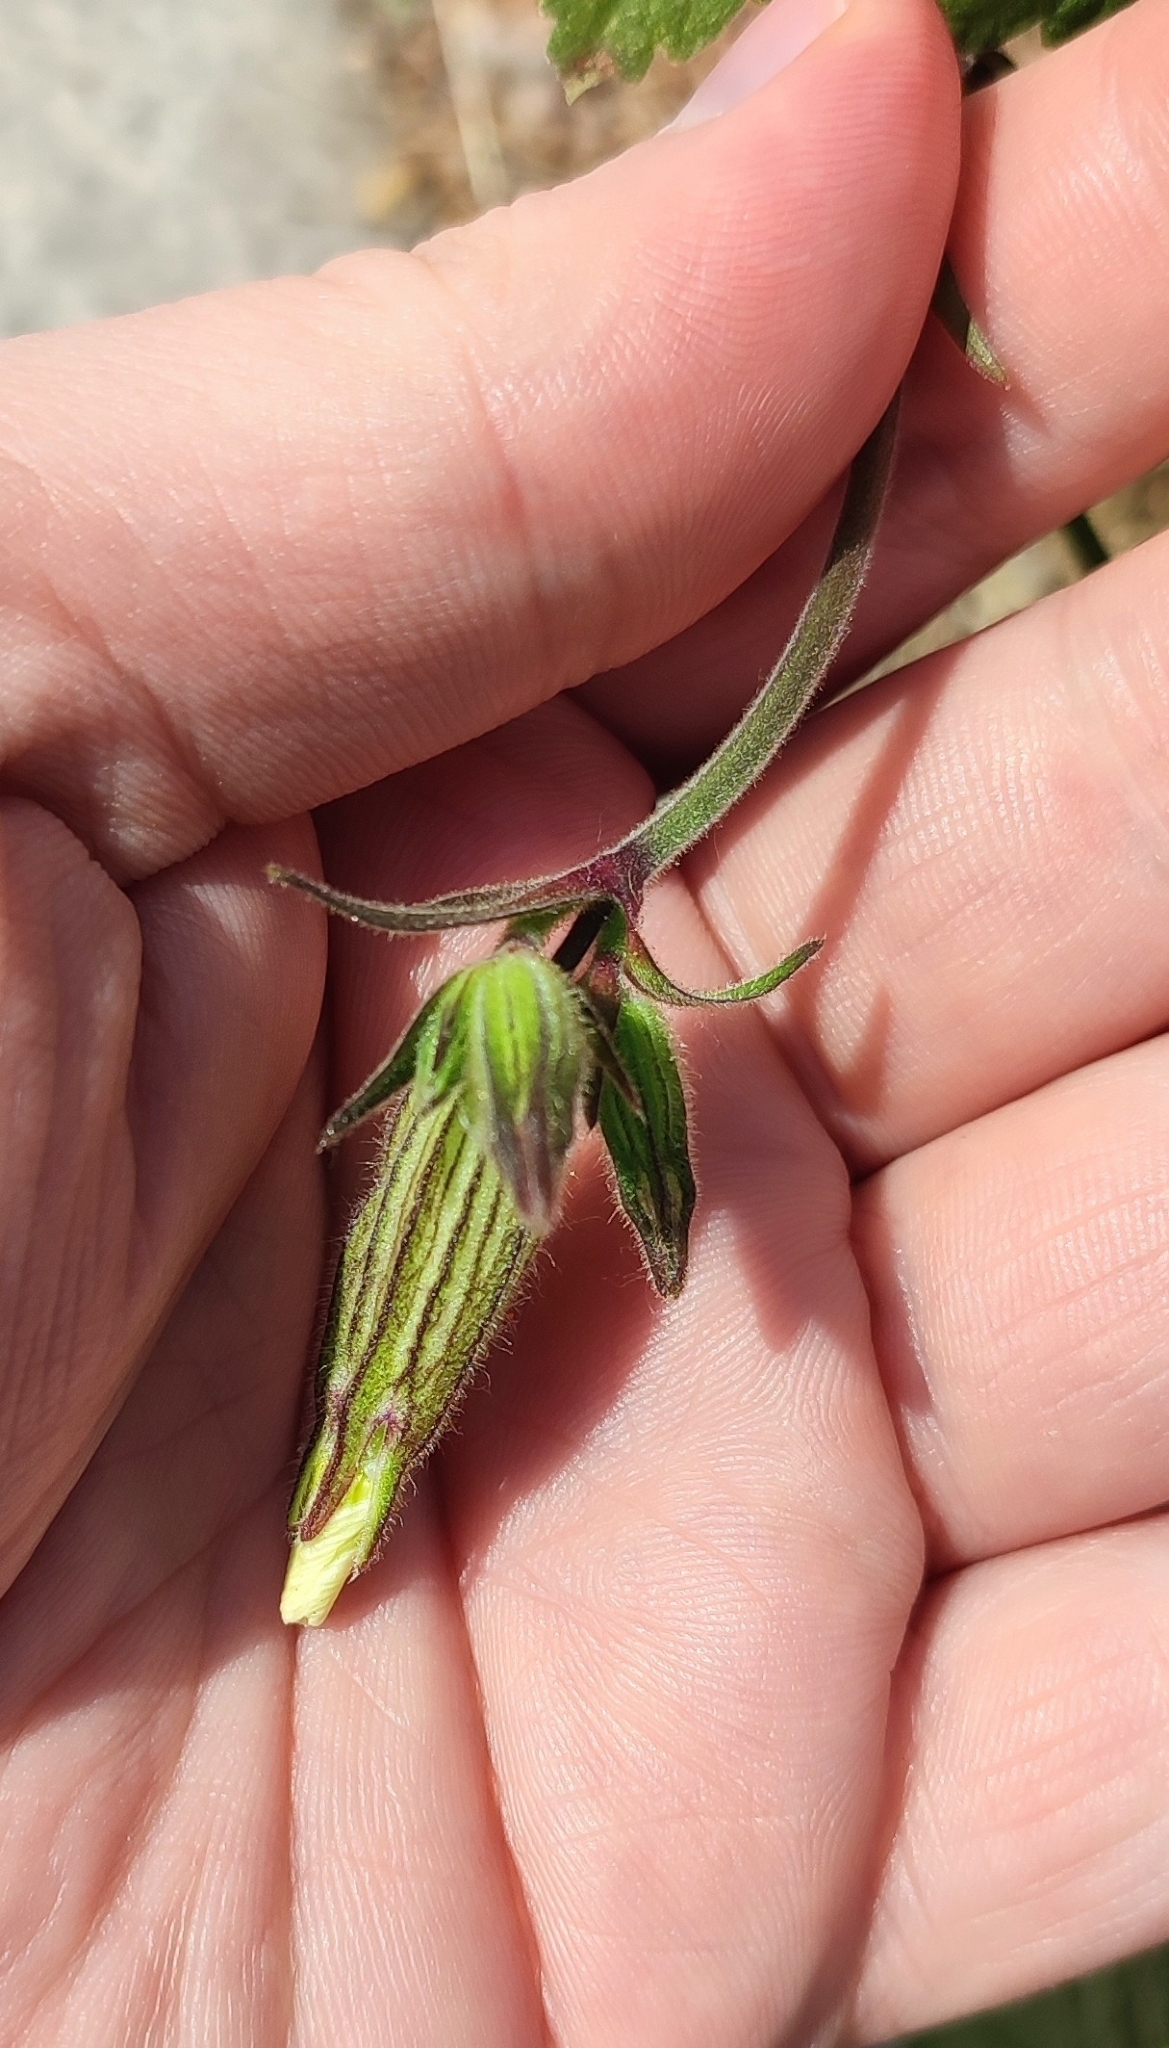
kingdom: Plantae
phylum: Tracheophyta
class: Magnoliopsida
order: Caryophyllales
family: Caryophyllaceae
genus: Silene
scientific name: Silene latifolia
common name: White campion
